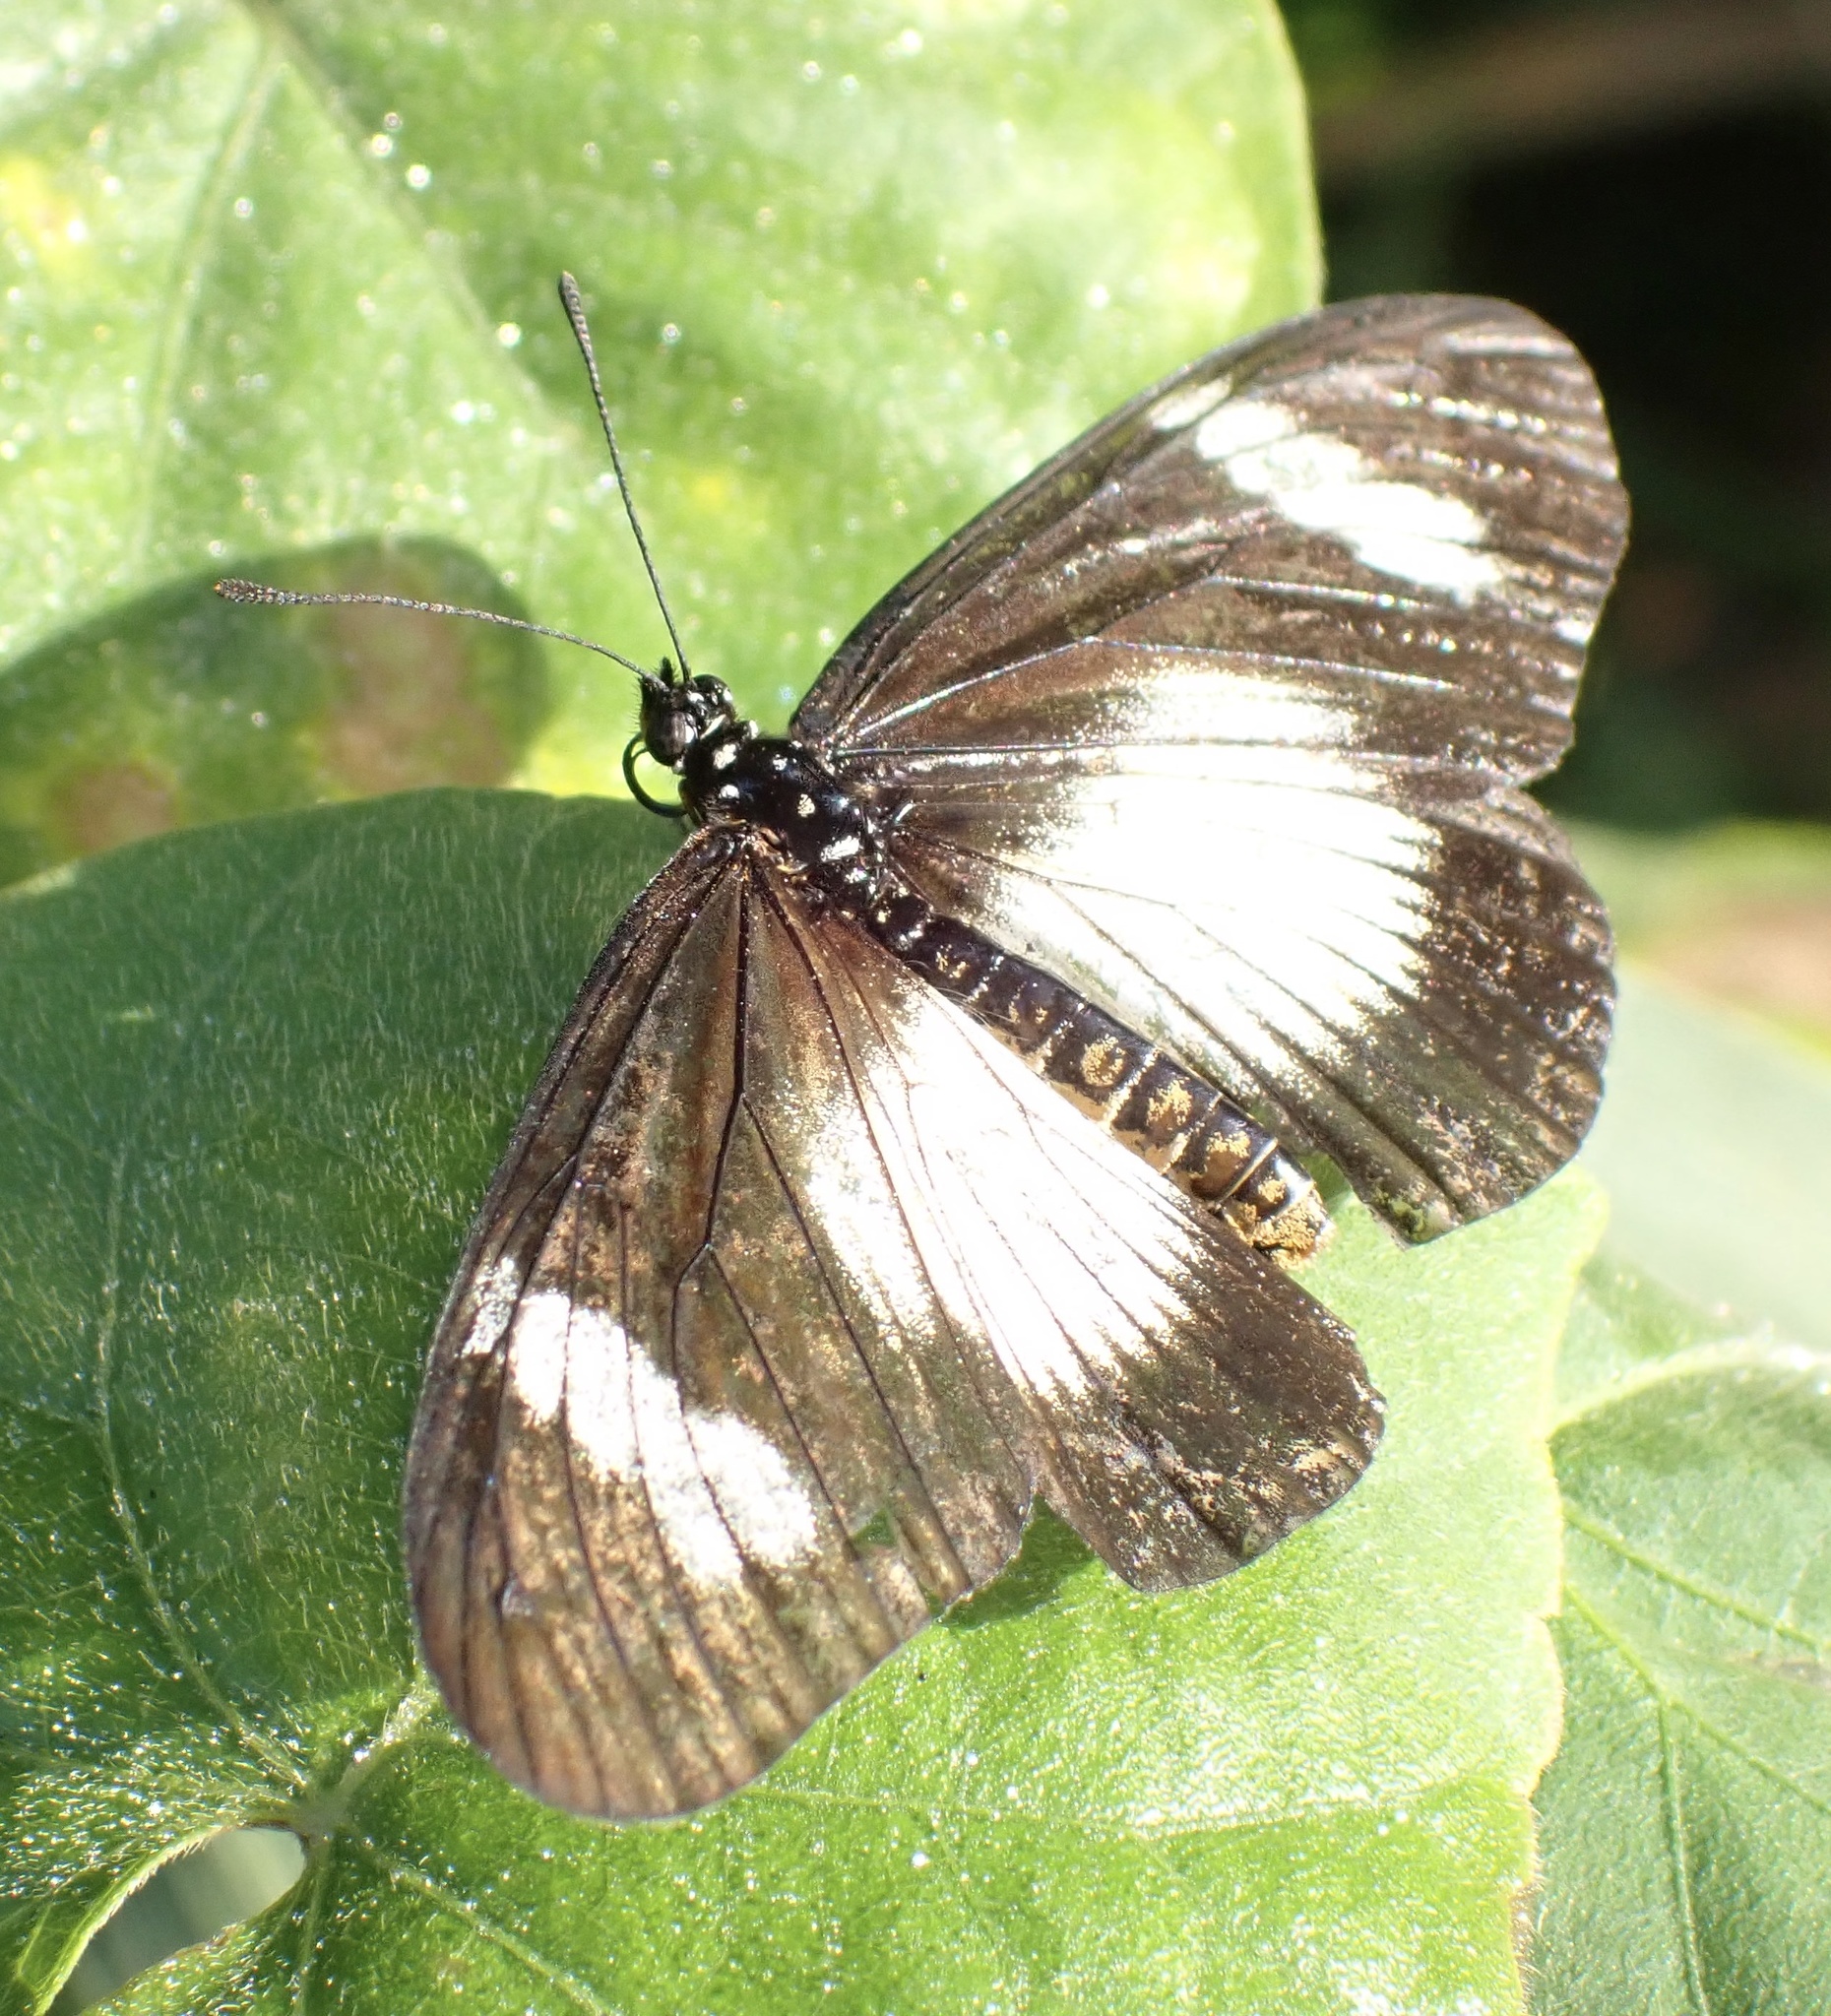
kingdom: Animalia
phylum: Arthropoda
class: Insecta
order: Lepidoptera
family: Nymphalidae
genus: Acraea
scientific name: Acraea esebria
